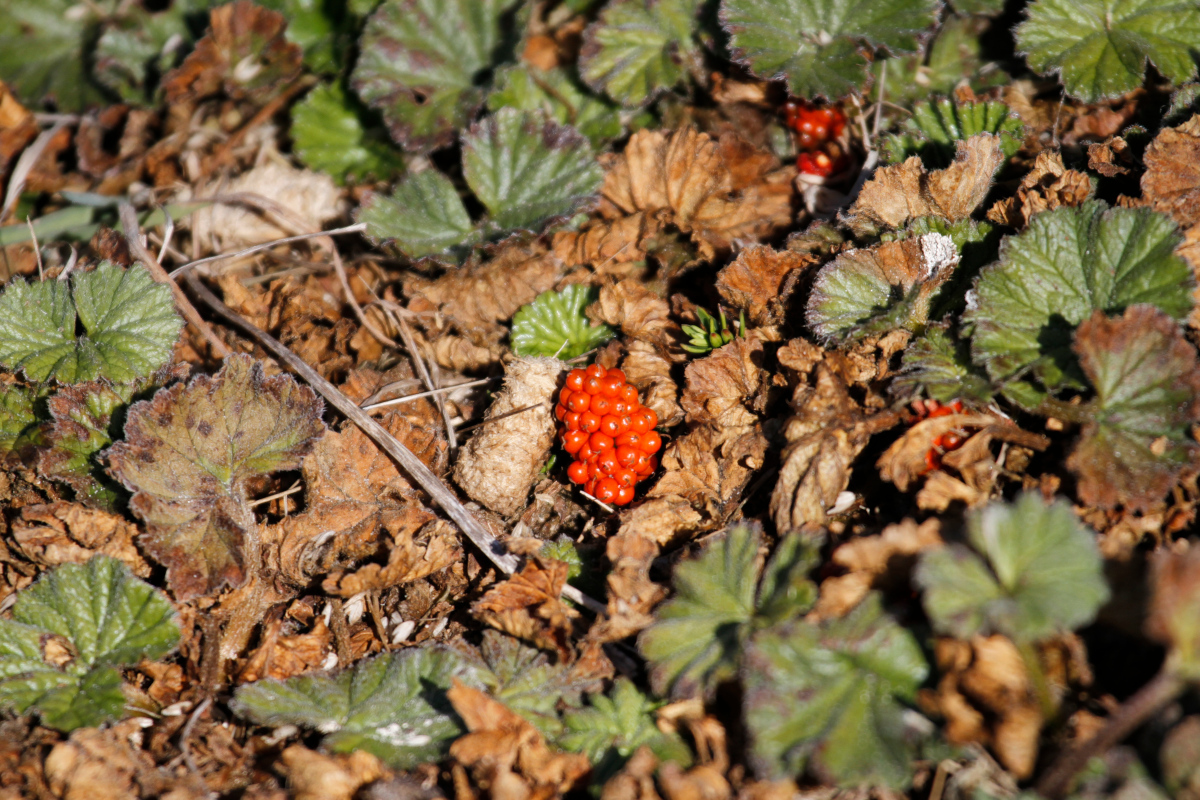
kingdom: Plantae
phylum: Tracheophyta
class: Magnoliopsida
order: Gunnerales
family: Gunneraceae
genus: Gunnera
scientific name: Gunnera magellanica
